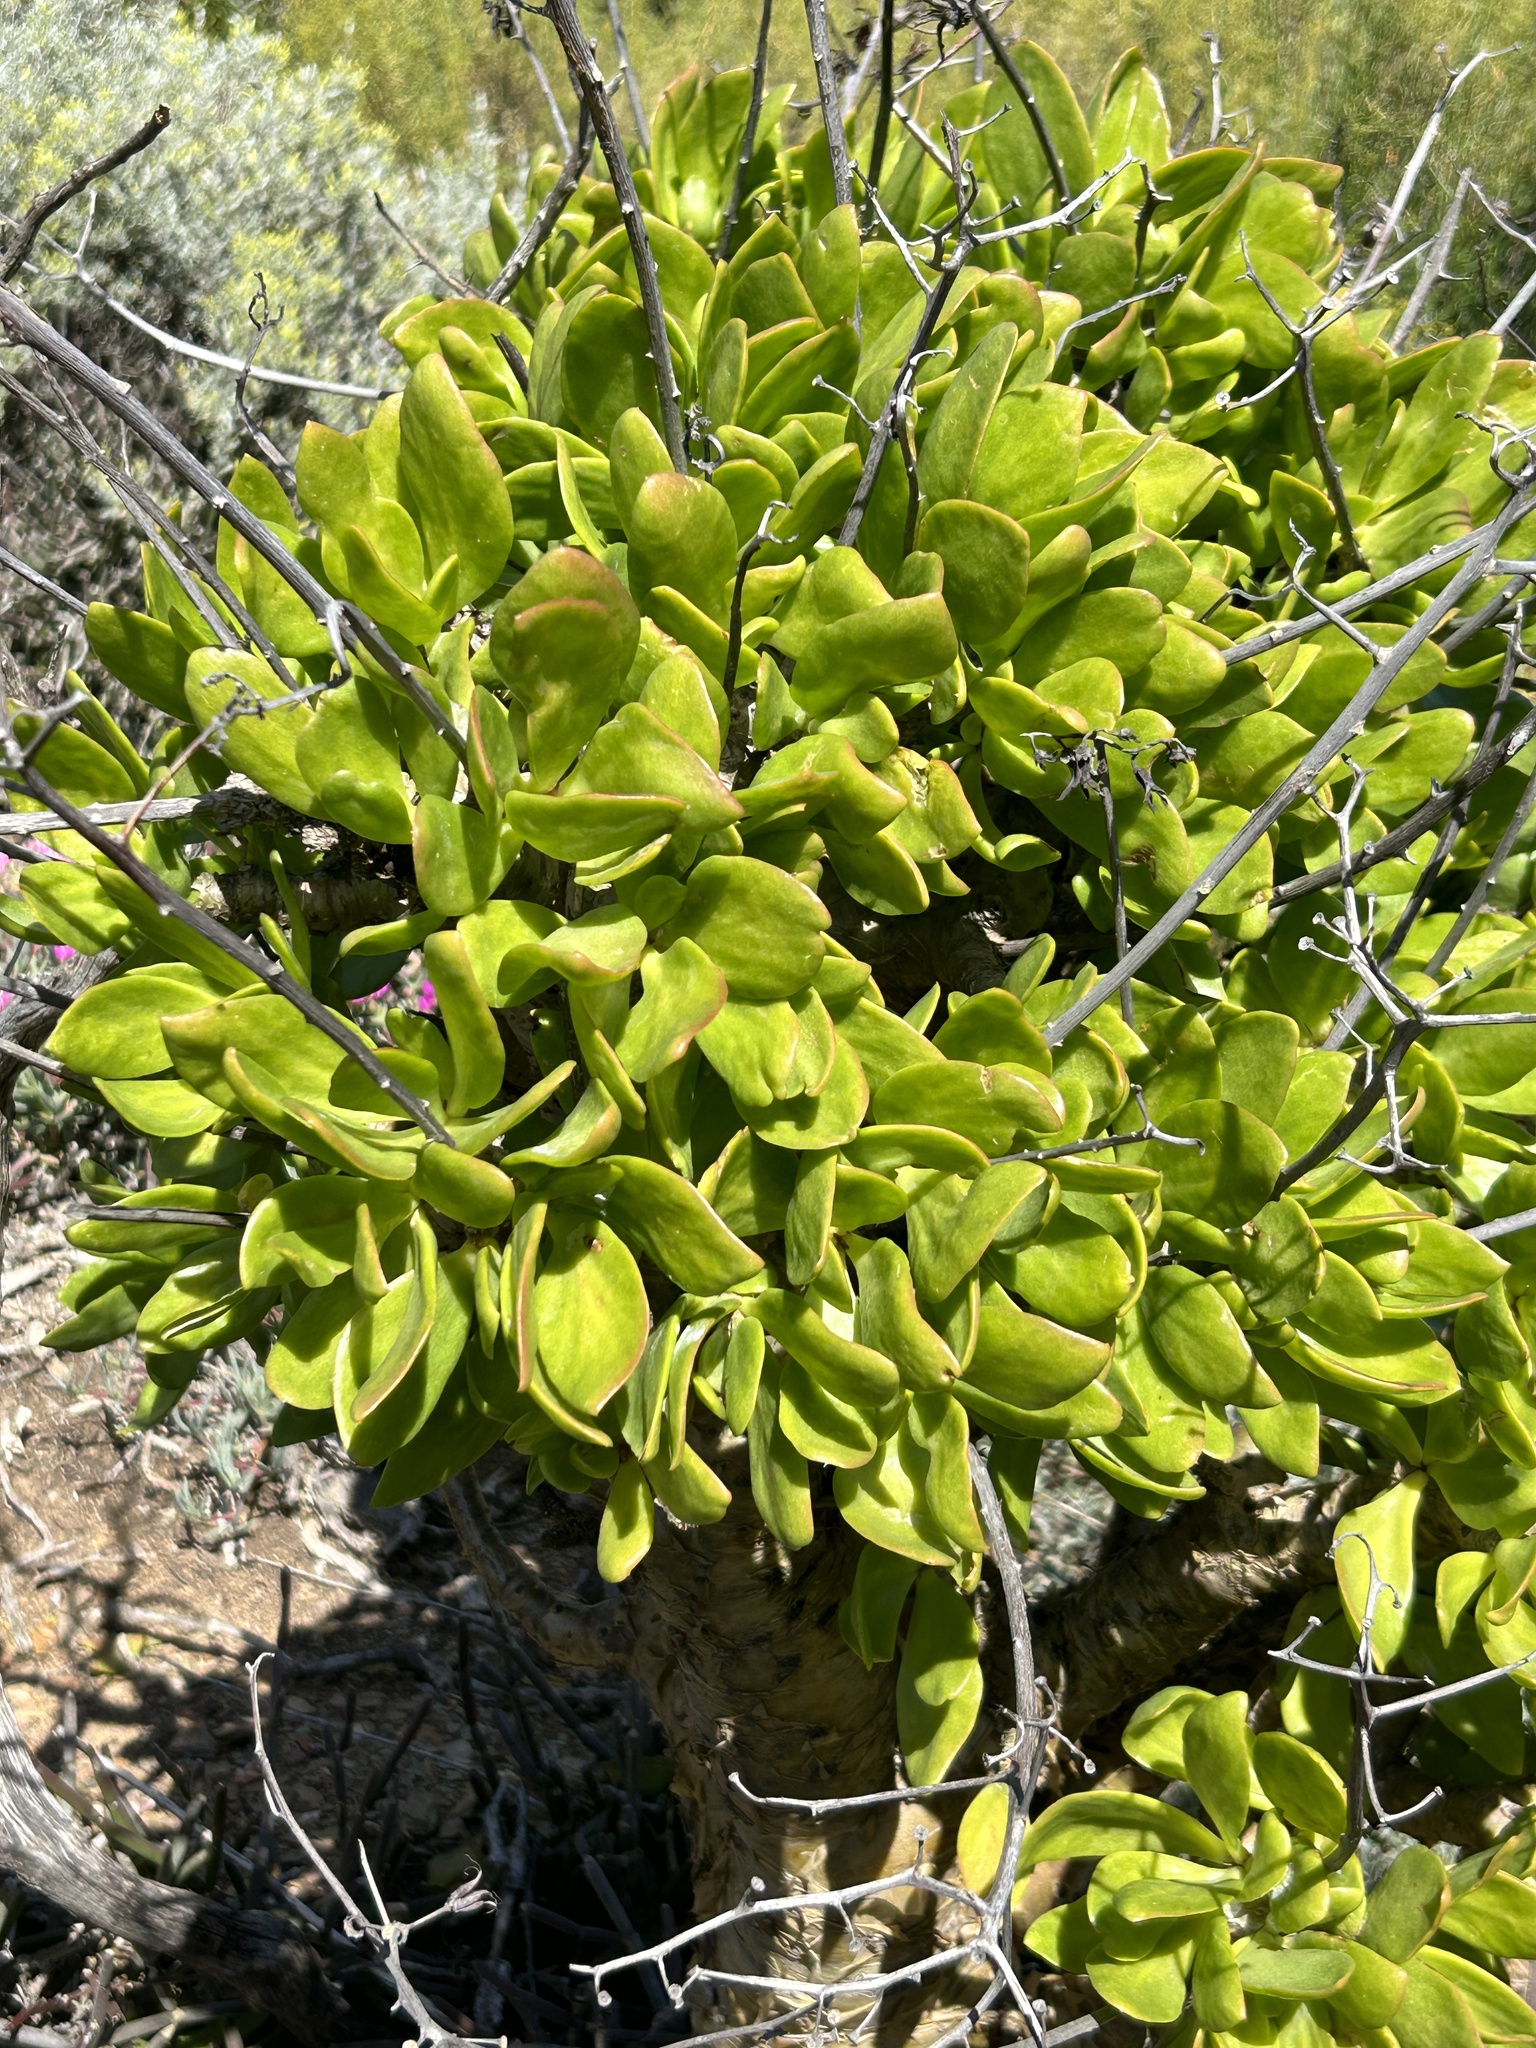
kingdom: Plantae
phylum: Tracheophyta
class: Magnoliopsida
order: Saxifragales
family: Crassulaceae
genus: Tylecodon
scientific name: Tylecodon paniculatus
